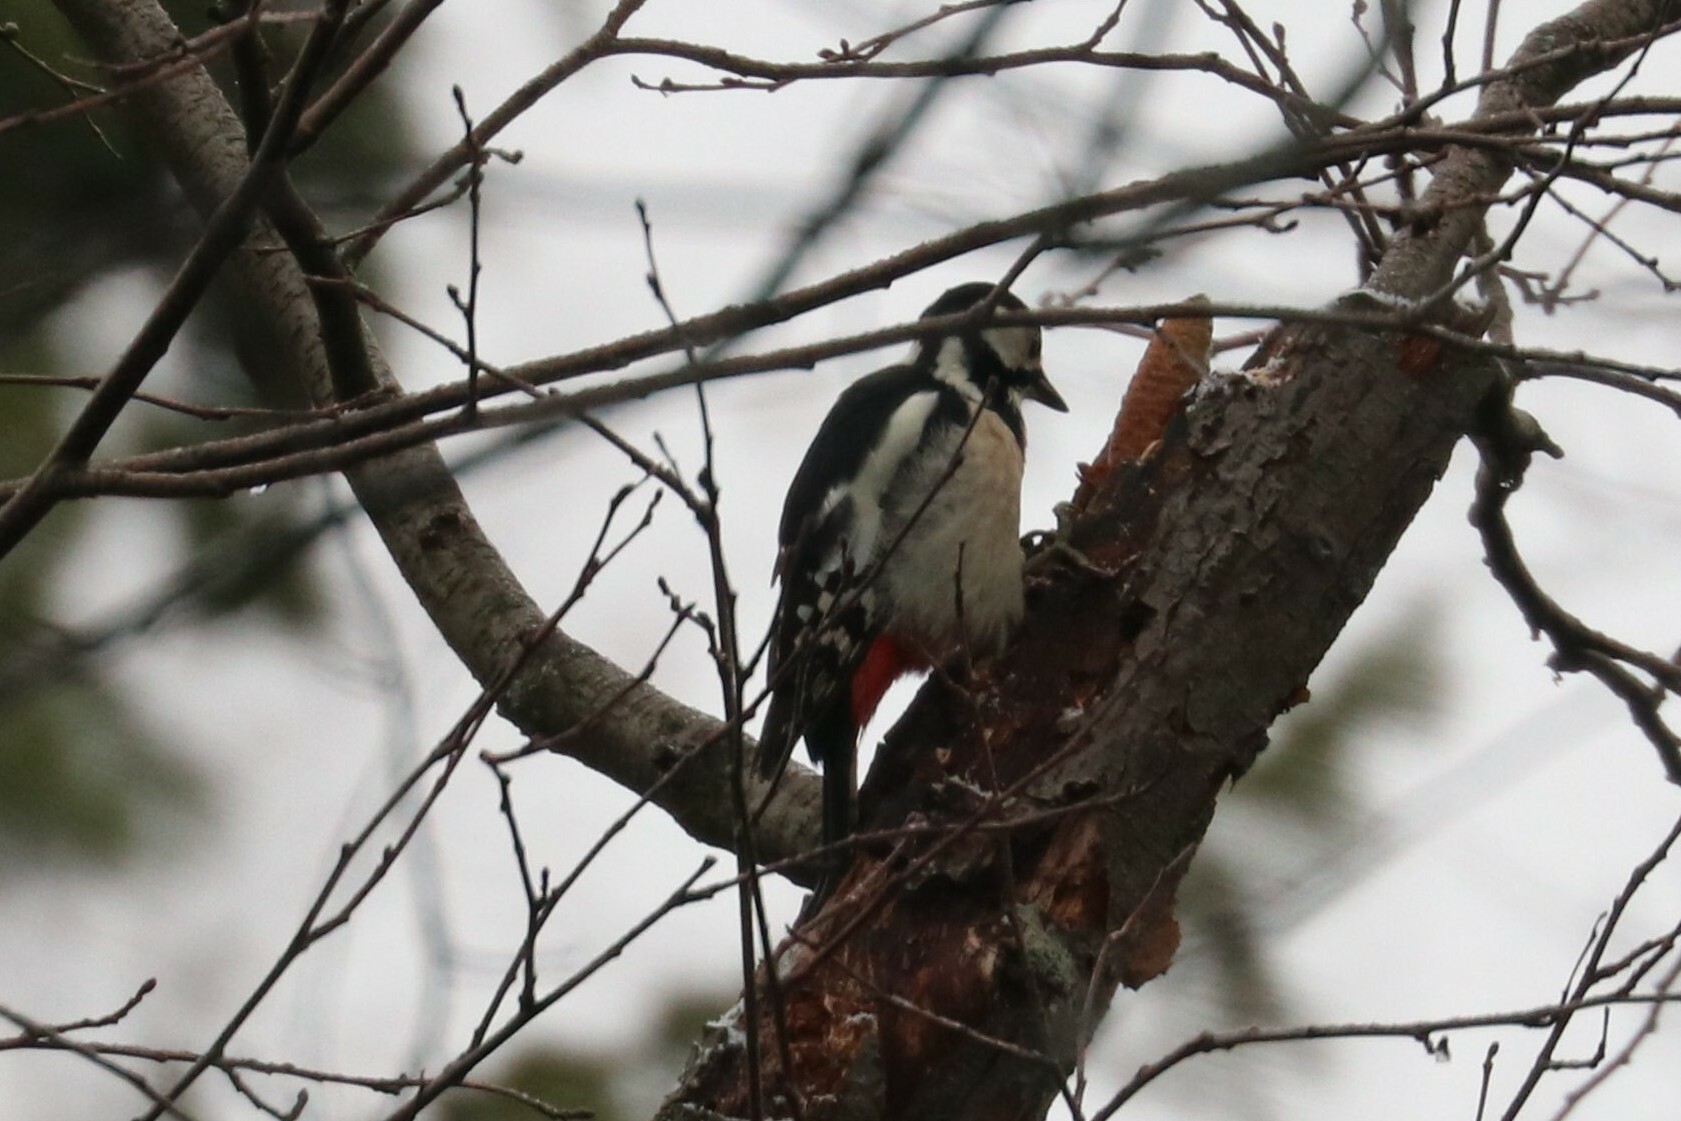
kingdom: Animalia
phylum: Chordata
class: Aves
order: Piciformes
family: Picidae
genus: Dendrocopos
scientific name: Dendrocopos major
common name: Great spotted woodpecker
